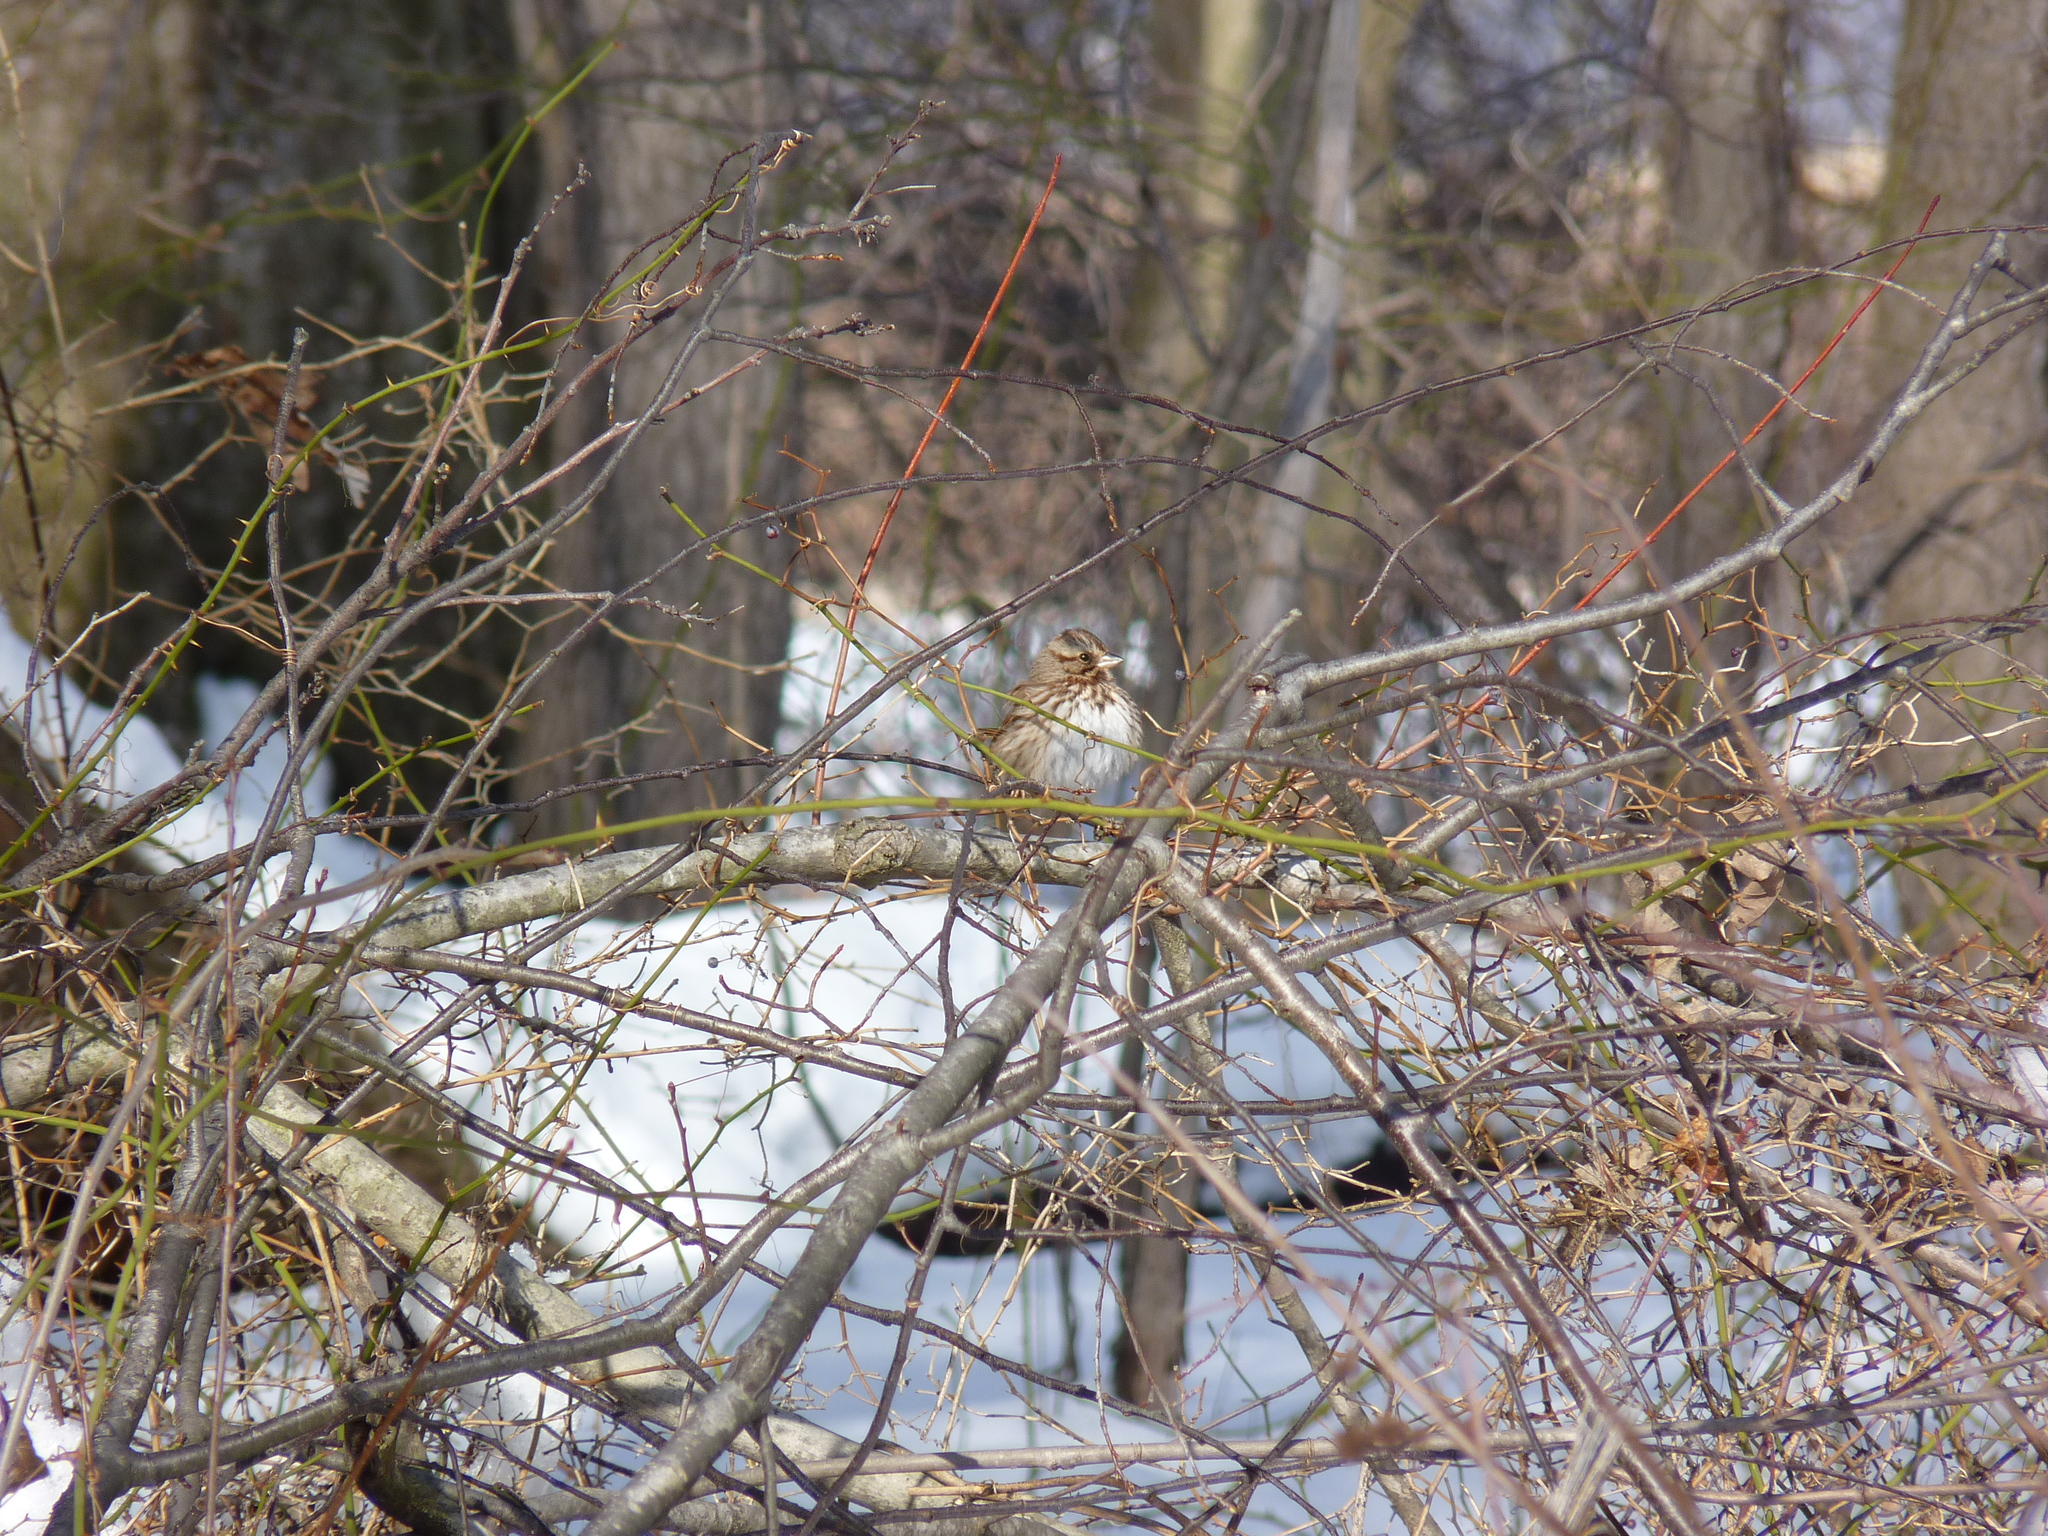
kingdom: Animalia
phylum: Chordata
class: Aves
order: Passeriformes
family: Passerellidae
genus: Melospiza
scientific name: Melospiza melodia
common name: Song sparrow
